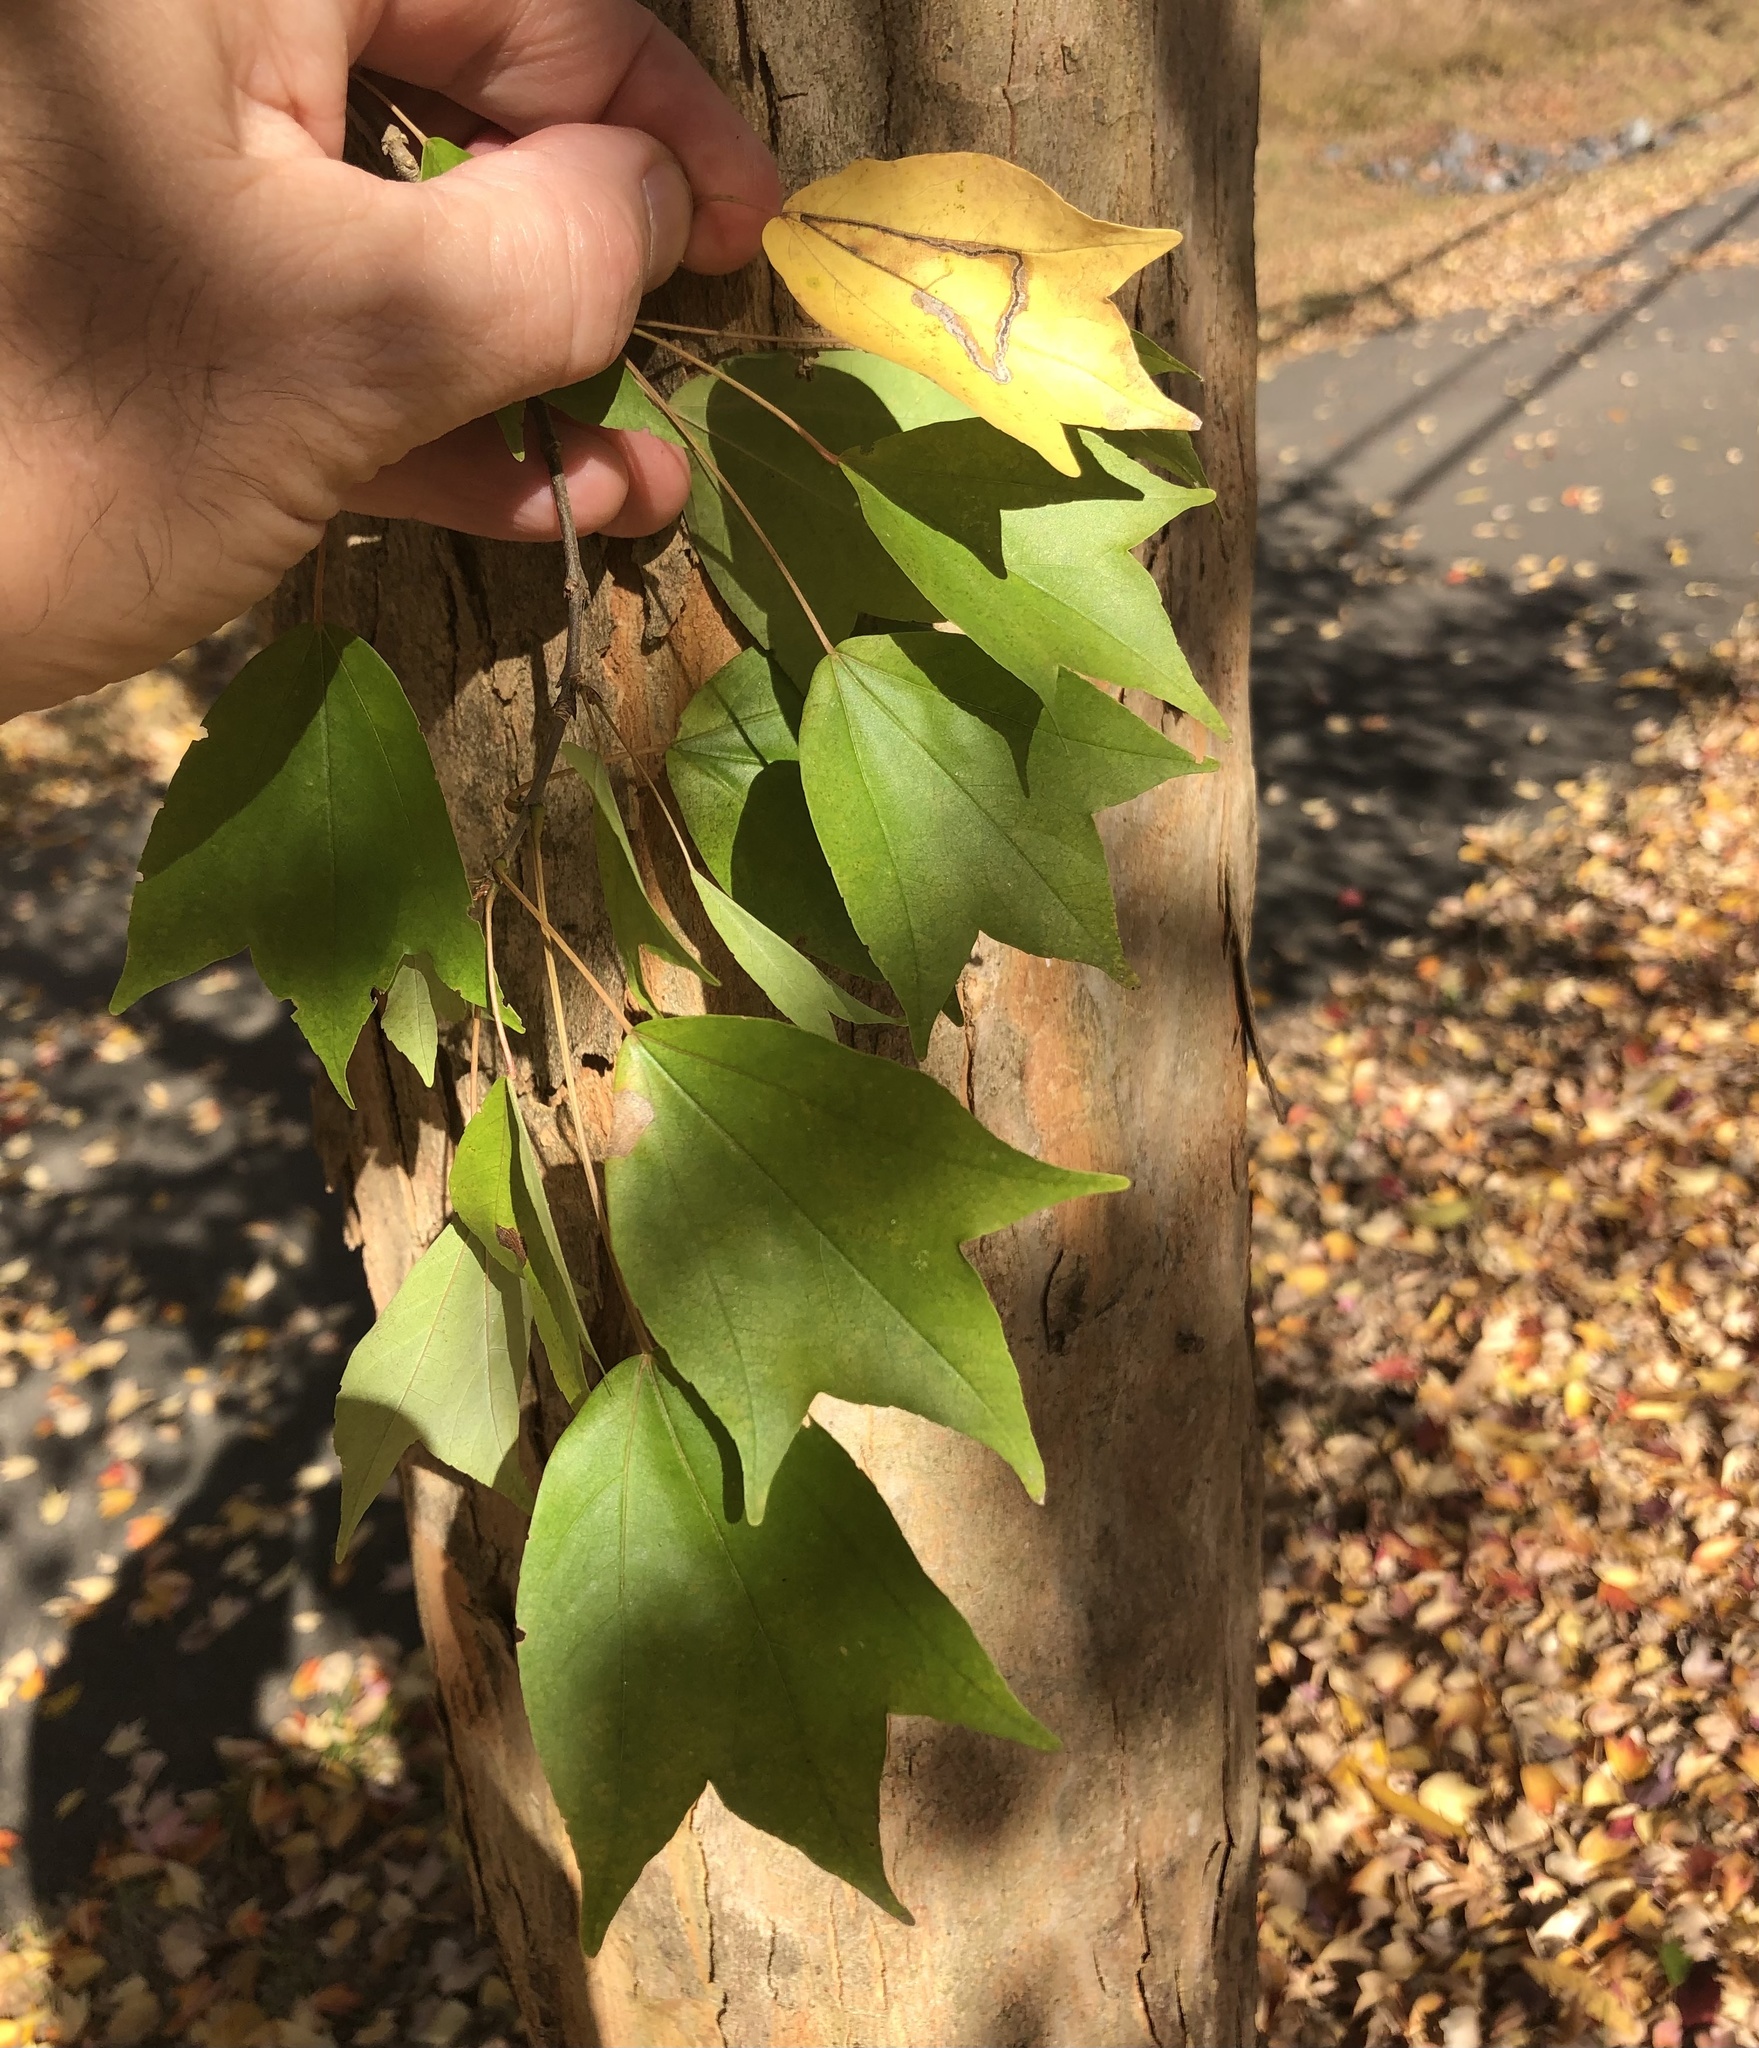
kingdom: Animalia
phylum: Arthropoda
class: Insecta
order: Lepidoptera
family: Nepticulidae
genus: Glaucolepis
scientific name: Glaucolepis saccharella
